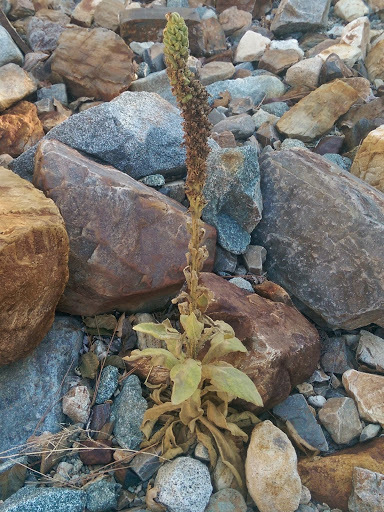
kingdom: Plantae
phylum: Tracheophyta
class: Magnoliopsida
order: Lamiales
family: Scrophulariaceae
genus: Verbascum
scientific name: Verbascum thapsus
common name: Common mullein
